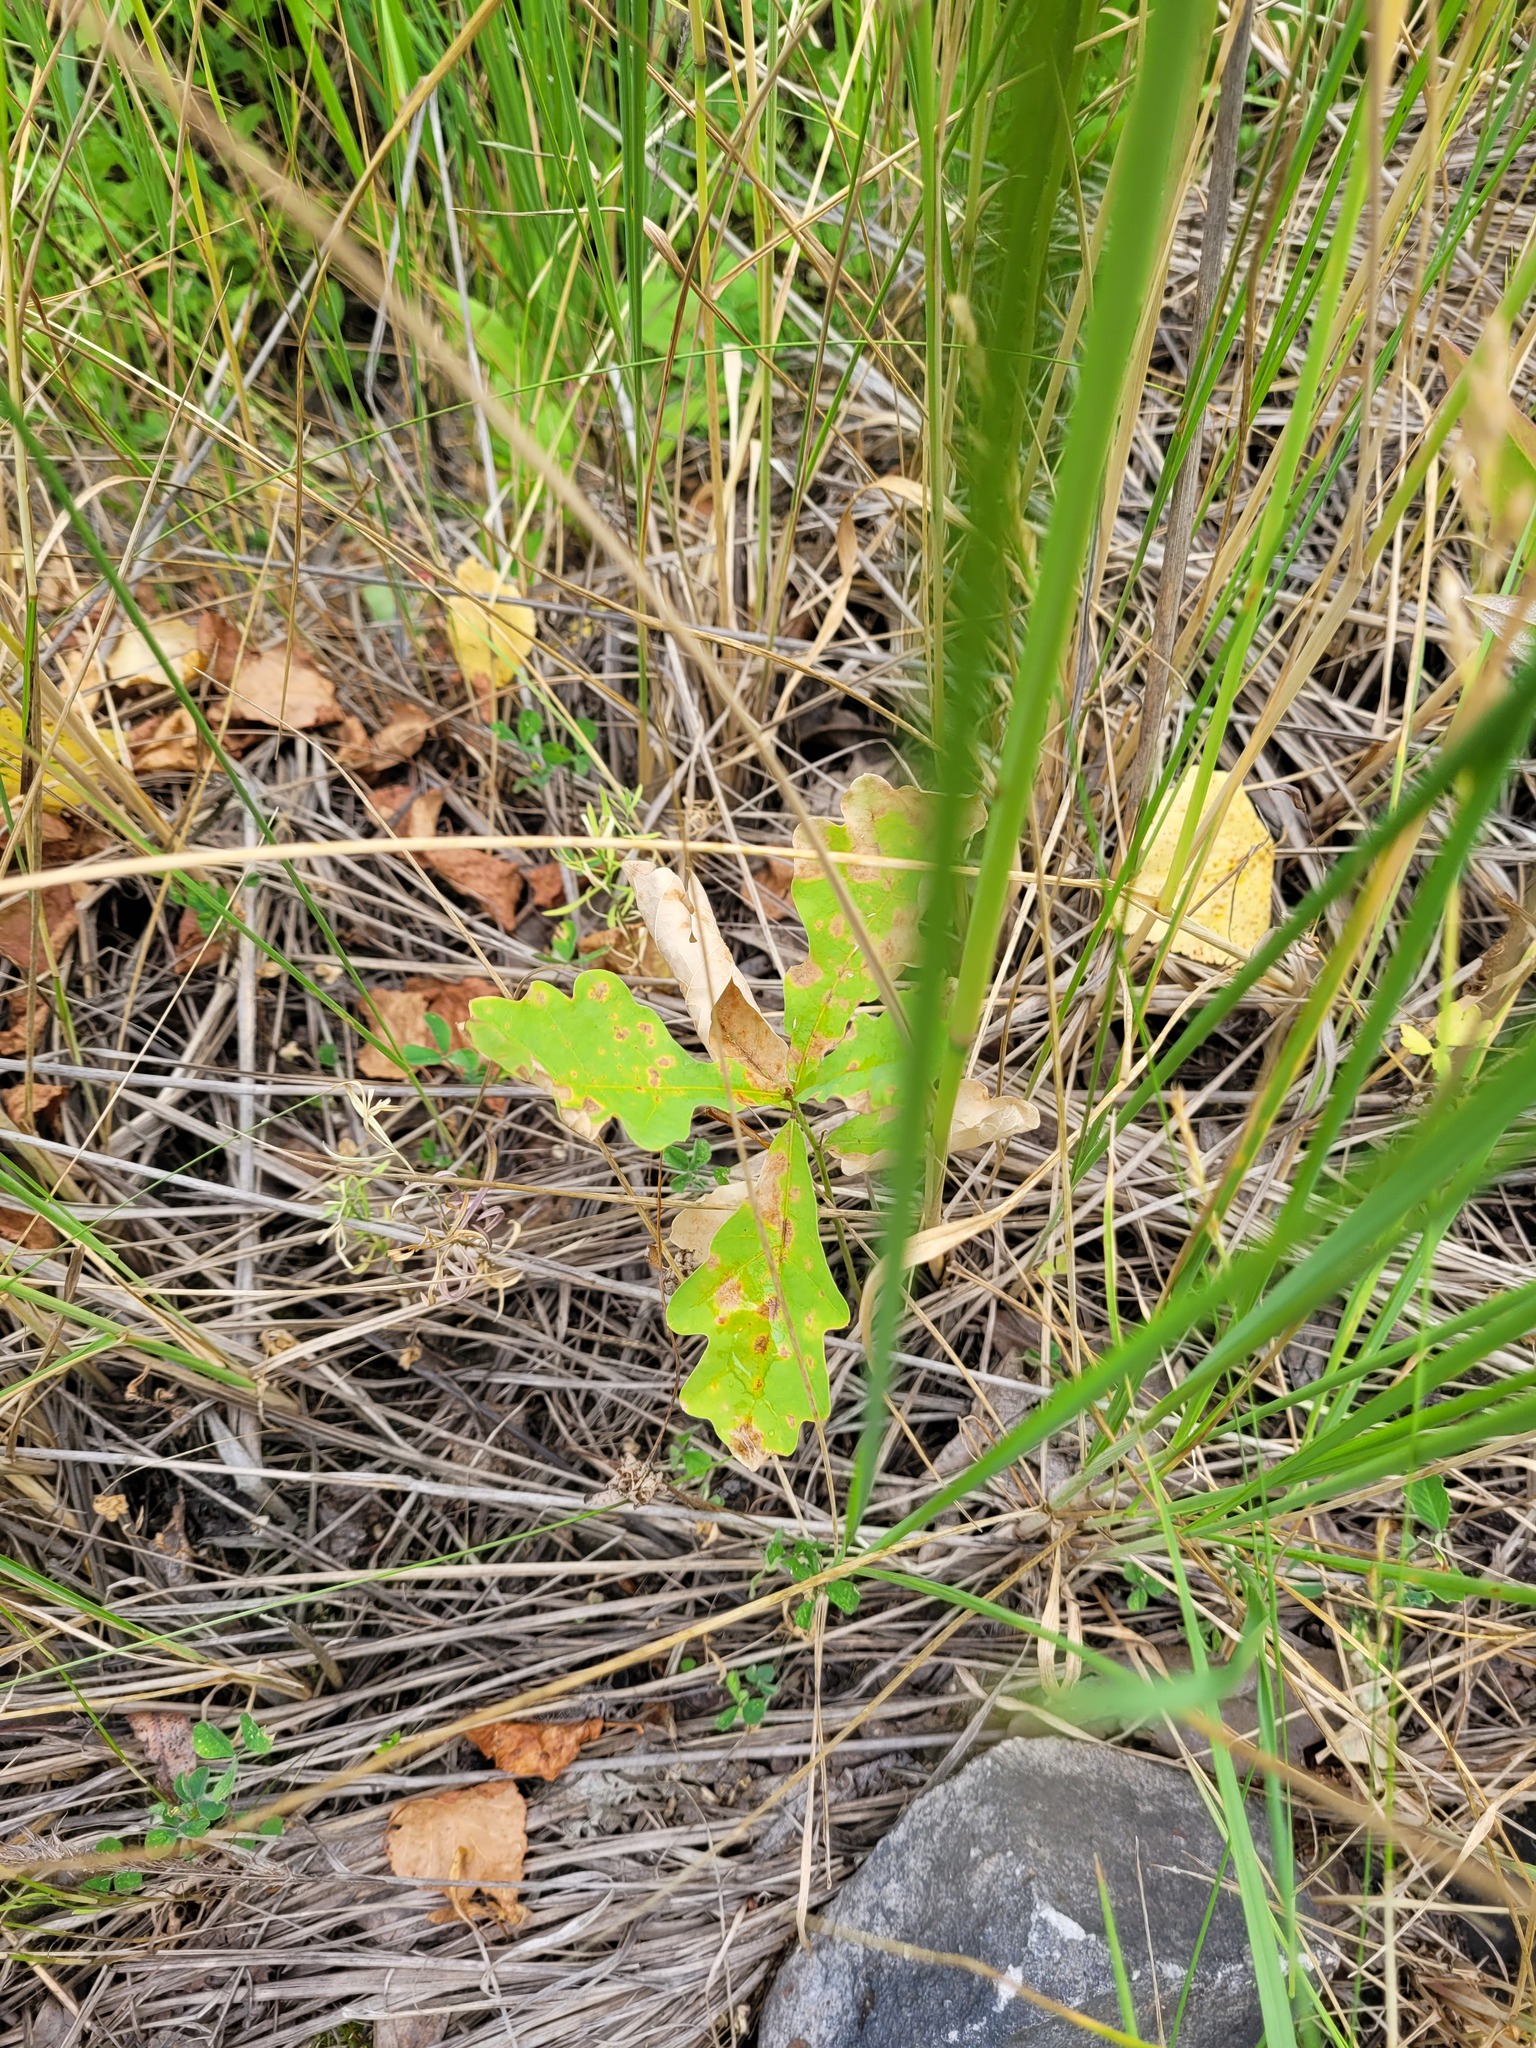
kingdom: Plantae
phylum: Tracheophyta
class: Magnoliopsida
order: Fagales
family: Fagaceae
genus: Quercus
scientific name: Quercus robur
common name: Pedunculate oak
